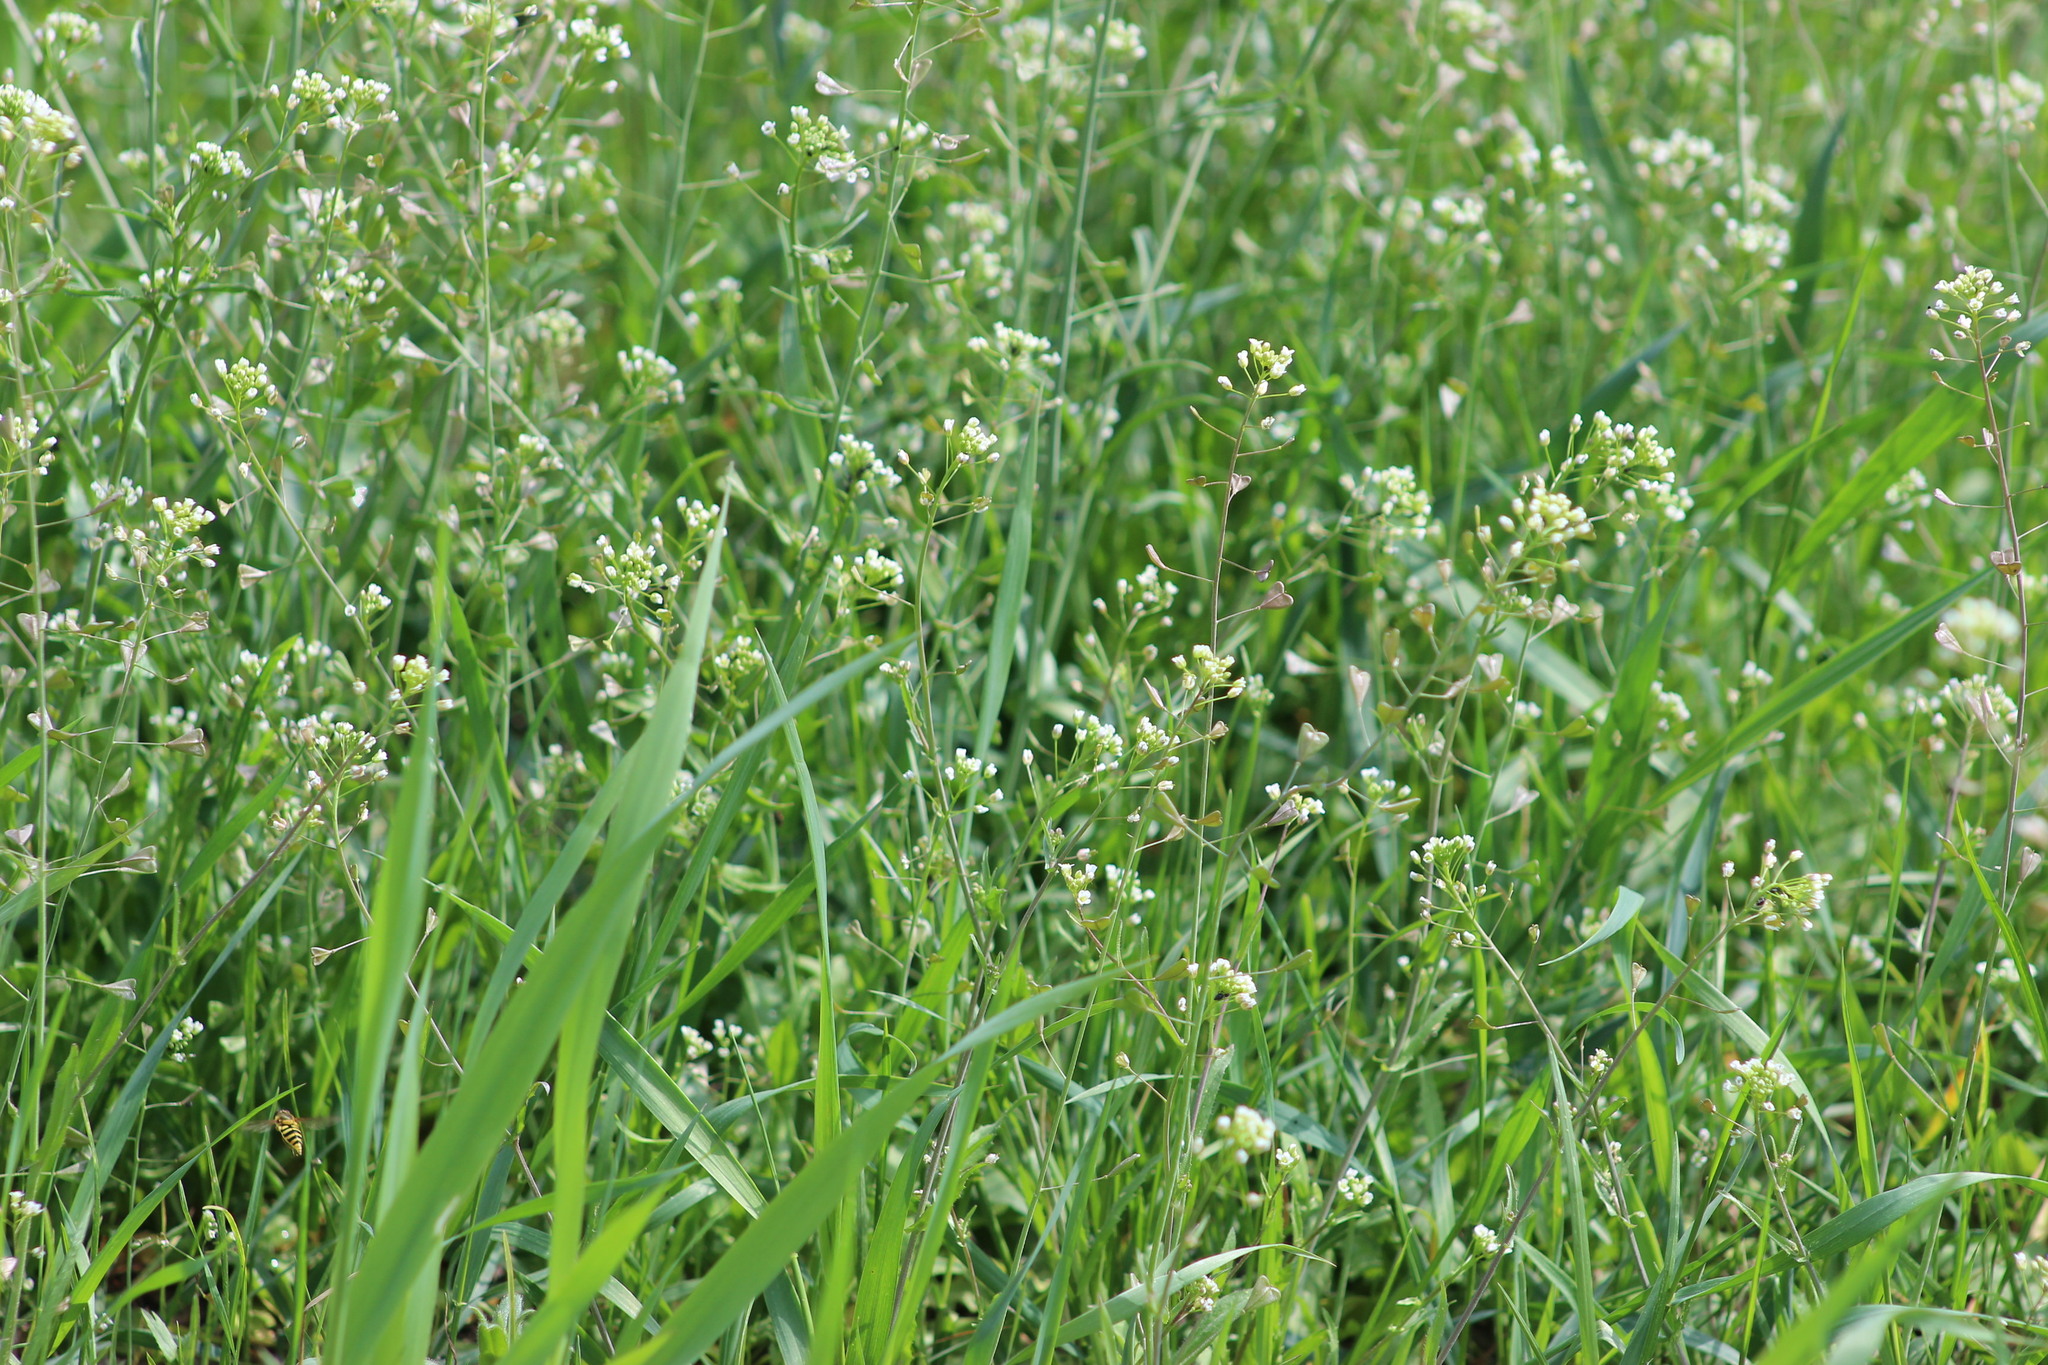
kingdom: Plantae
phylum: Tracheophyta
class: Magnoliopsida
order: Brassicales
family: Brassicaceae
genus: Capsella
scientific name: Capsella bursa-pastoris
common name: Shepherd's purse
